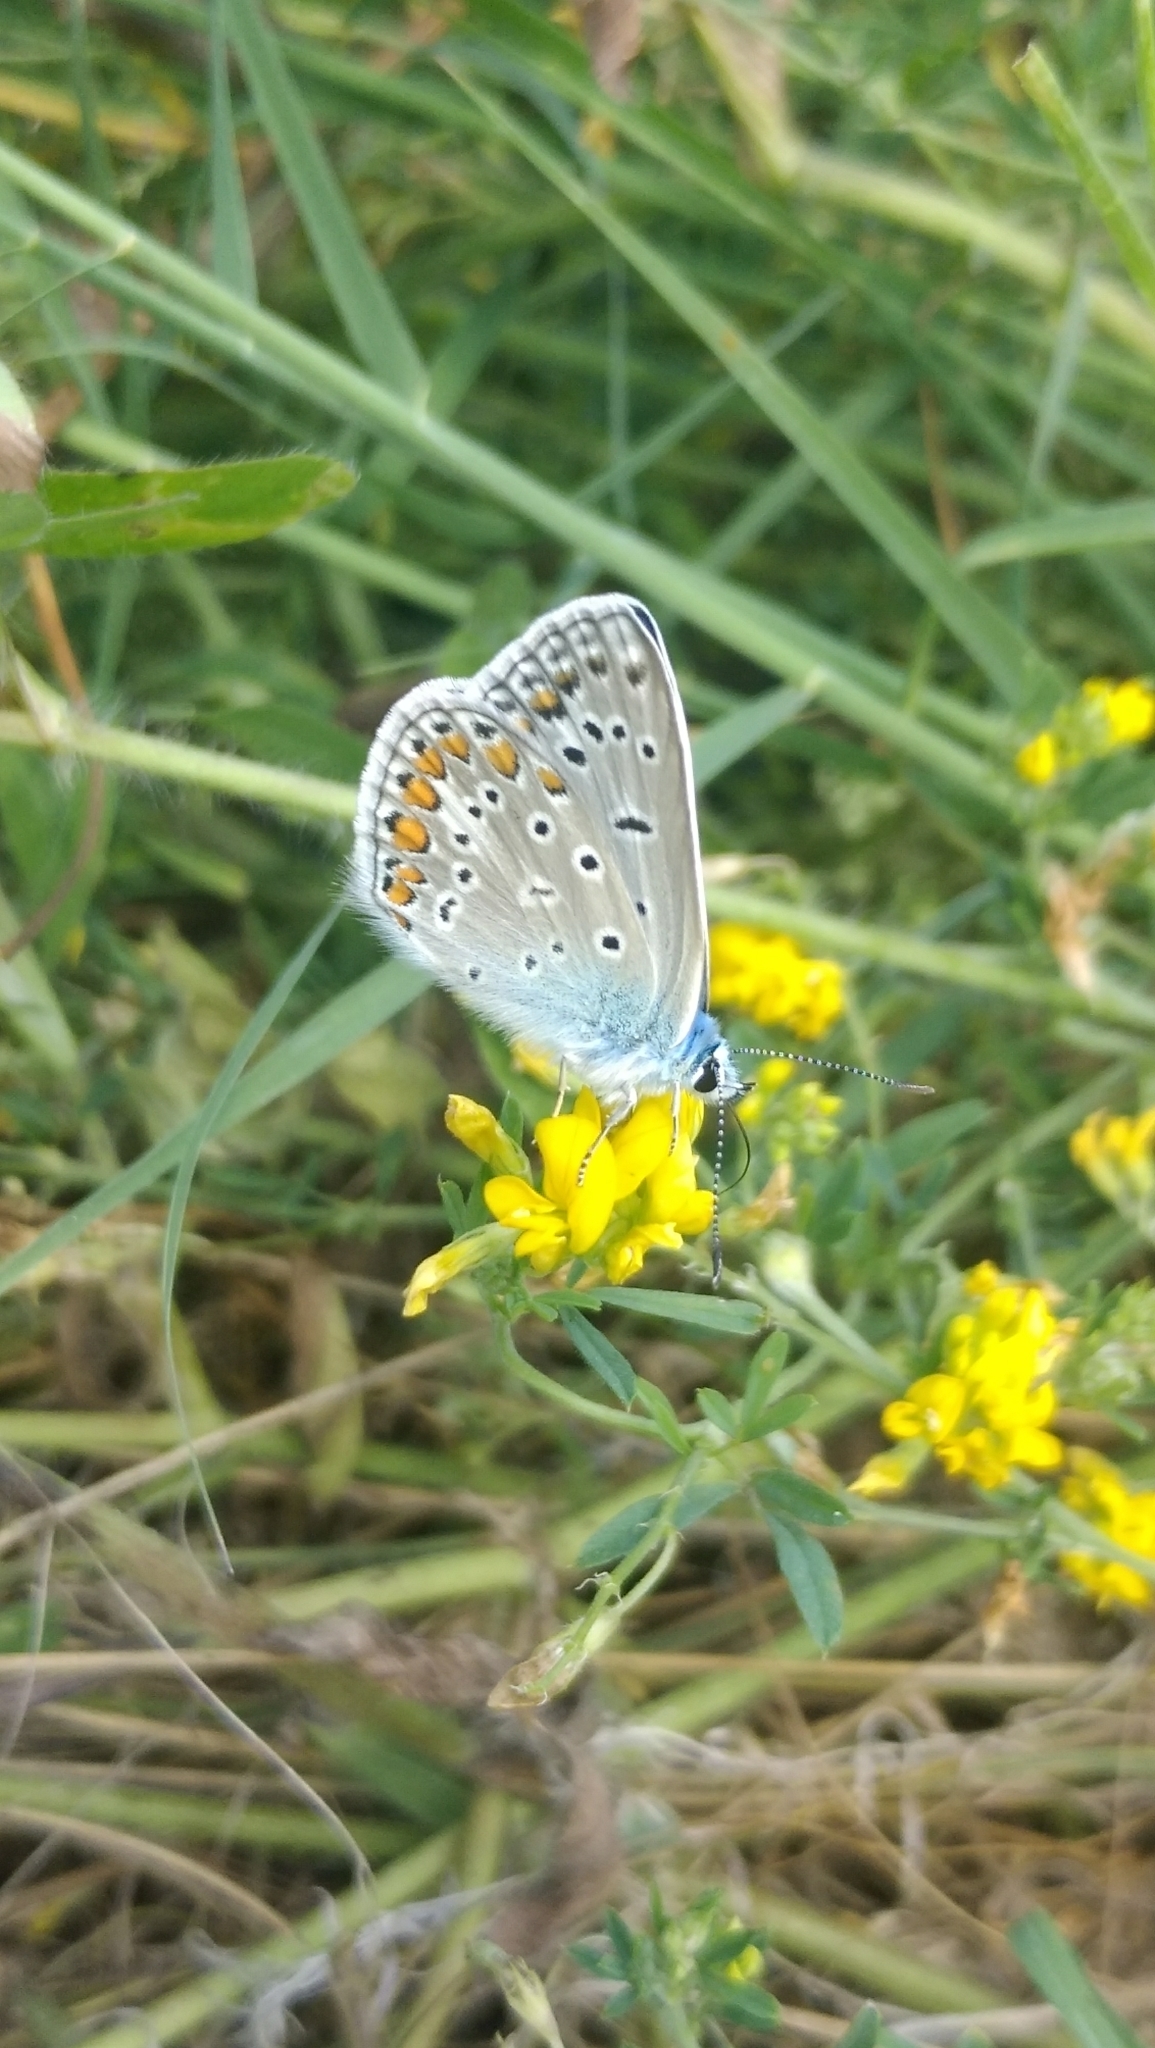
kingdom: Animalia
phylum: Arthropoda
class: Insecta
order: Lepidoptera
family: Lycaenidae
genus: Polyommatus
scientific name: Polyommatus icarus
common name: Common blue
